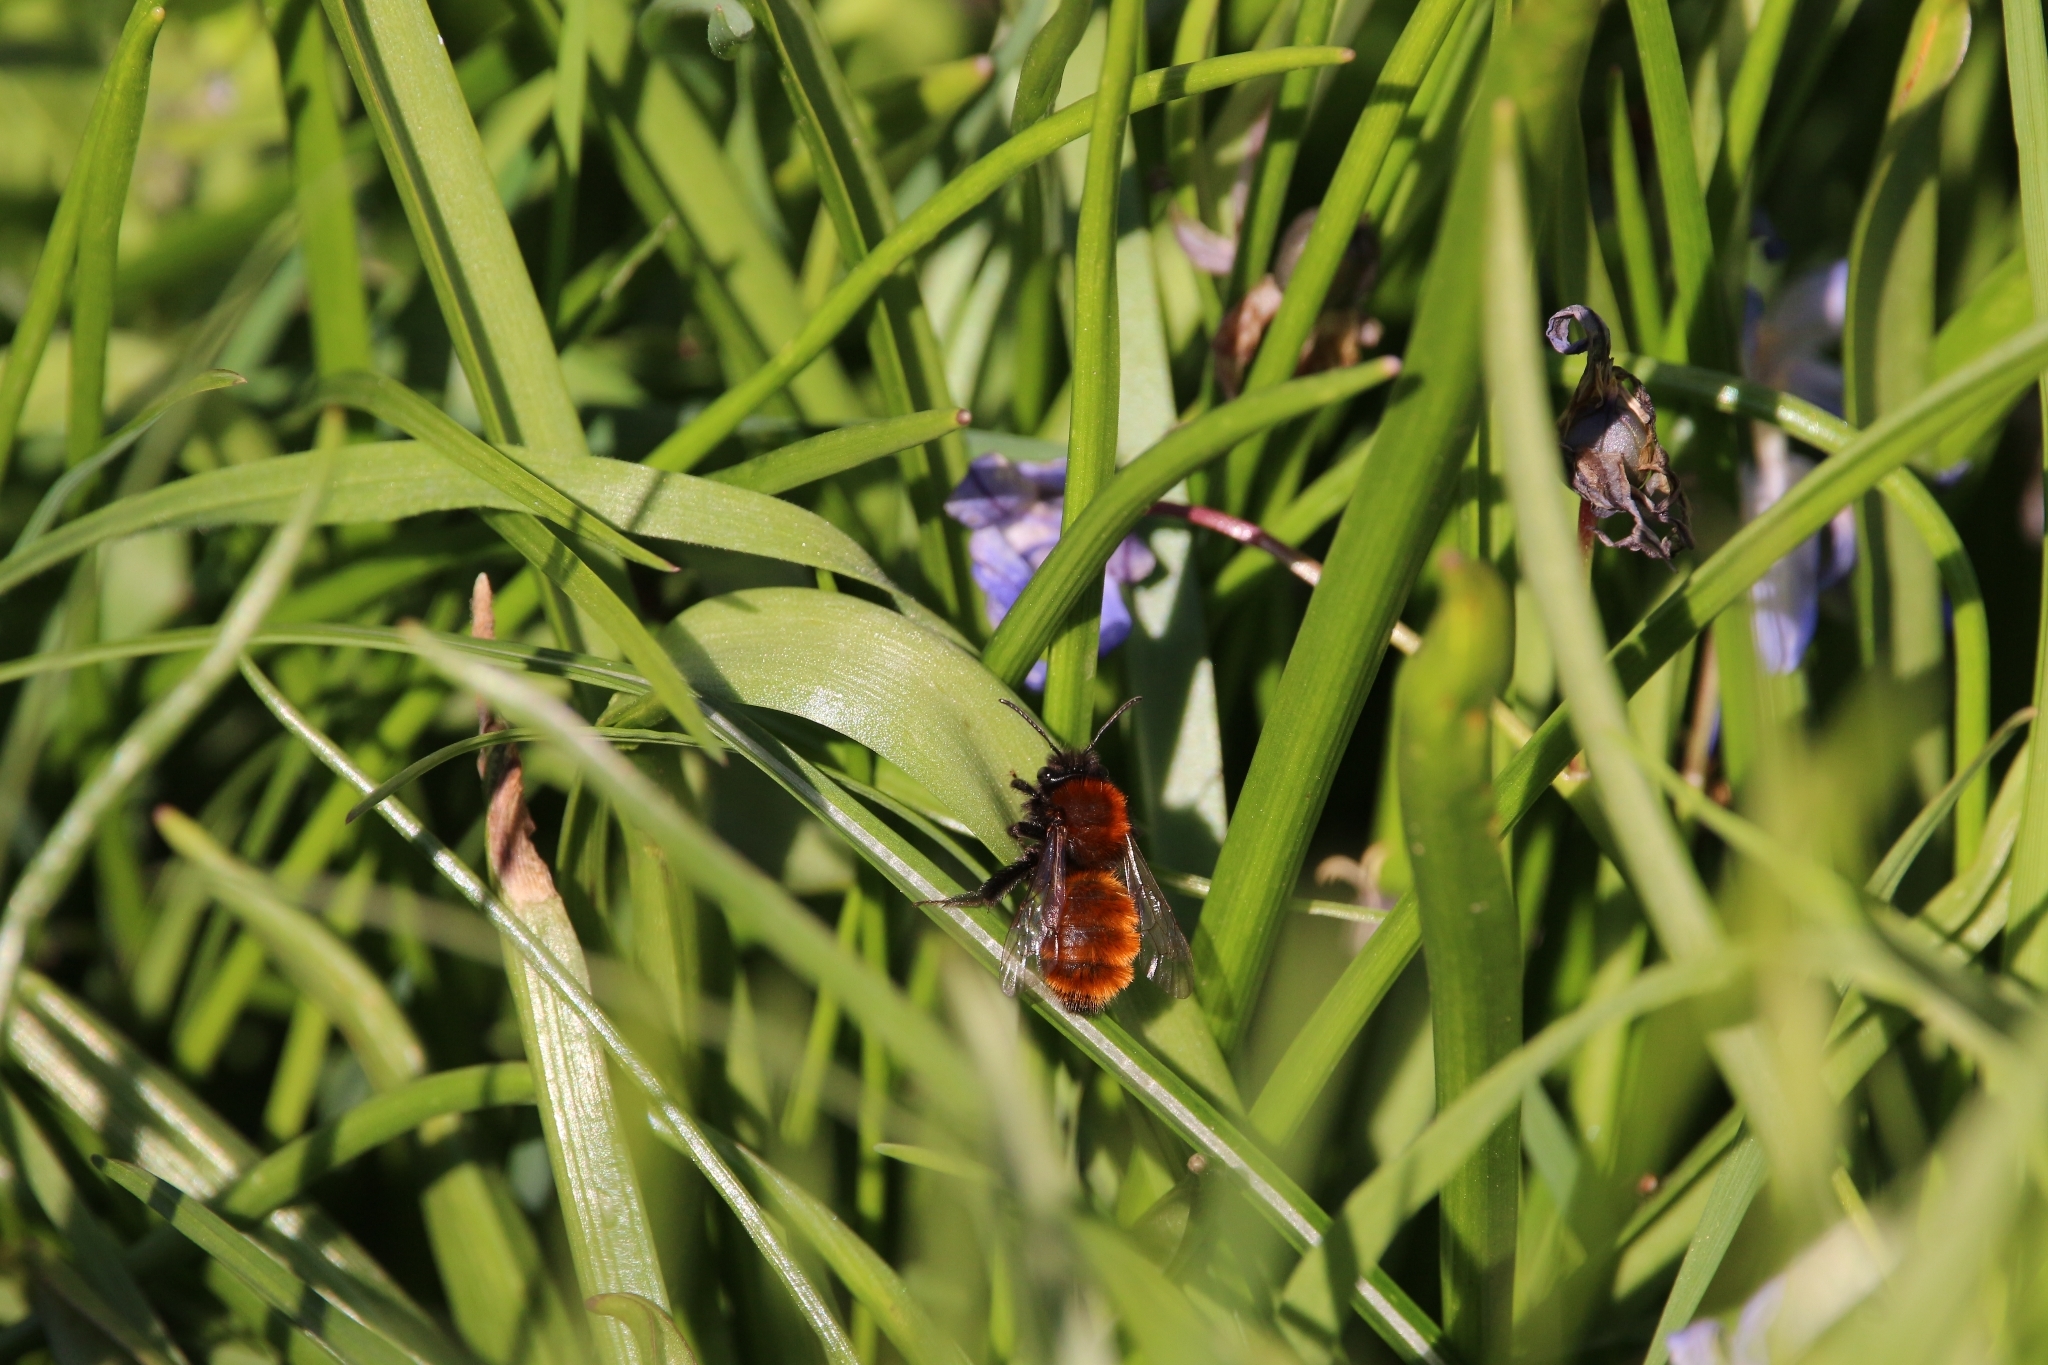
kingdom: Animalia
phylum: Arthropoda
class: Insecta
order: Hymenoptera
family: Andrenidae
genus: Andrena
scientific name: Andrena fulva
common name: Tawny mining bee
